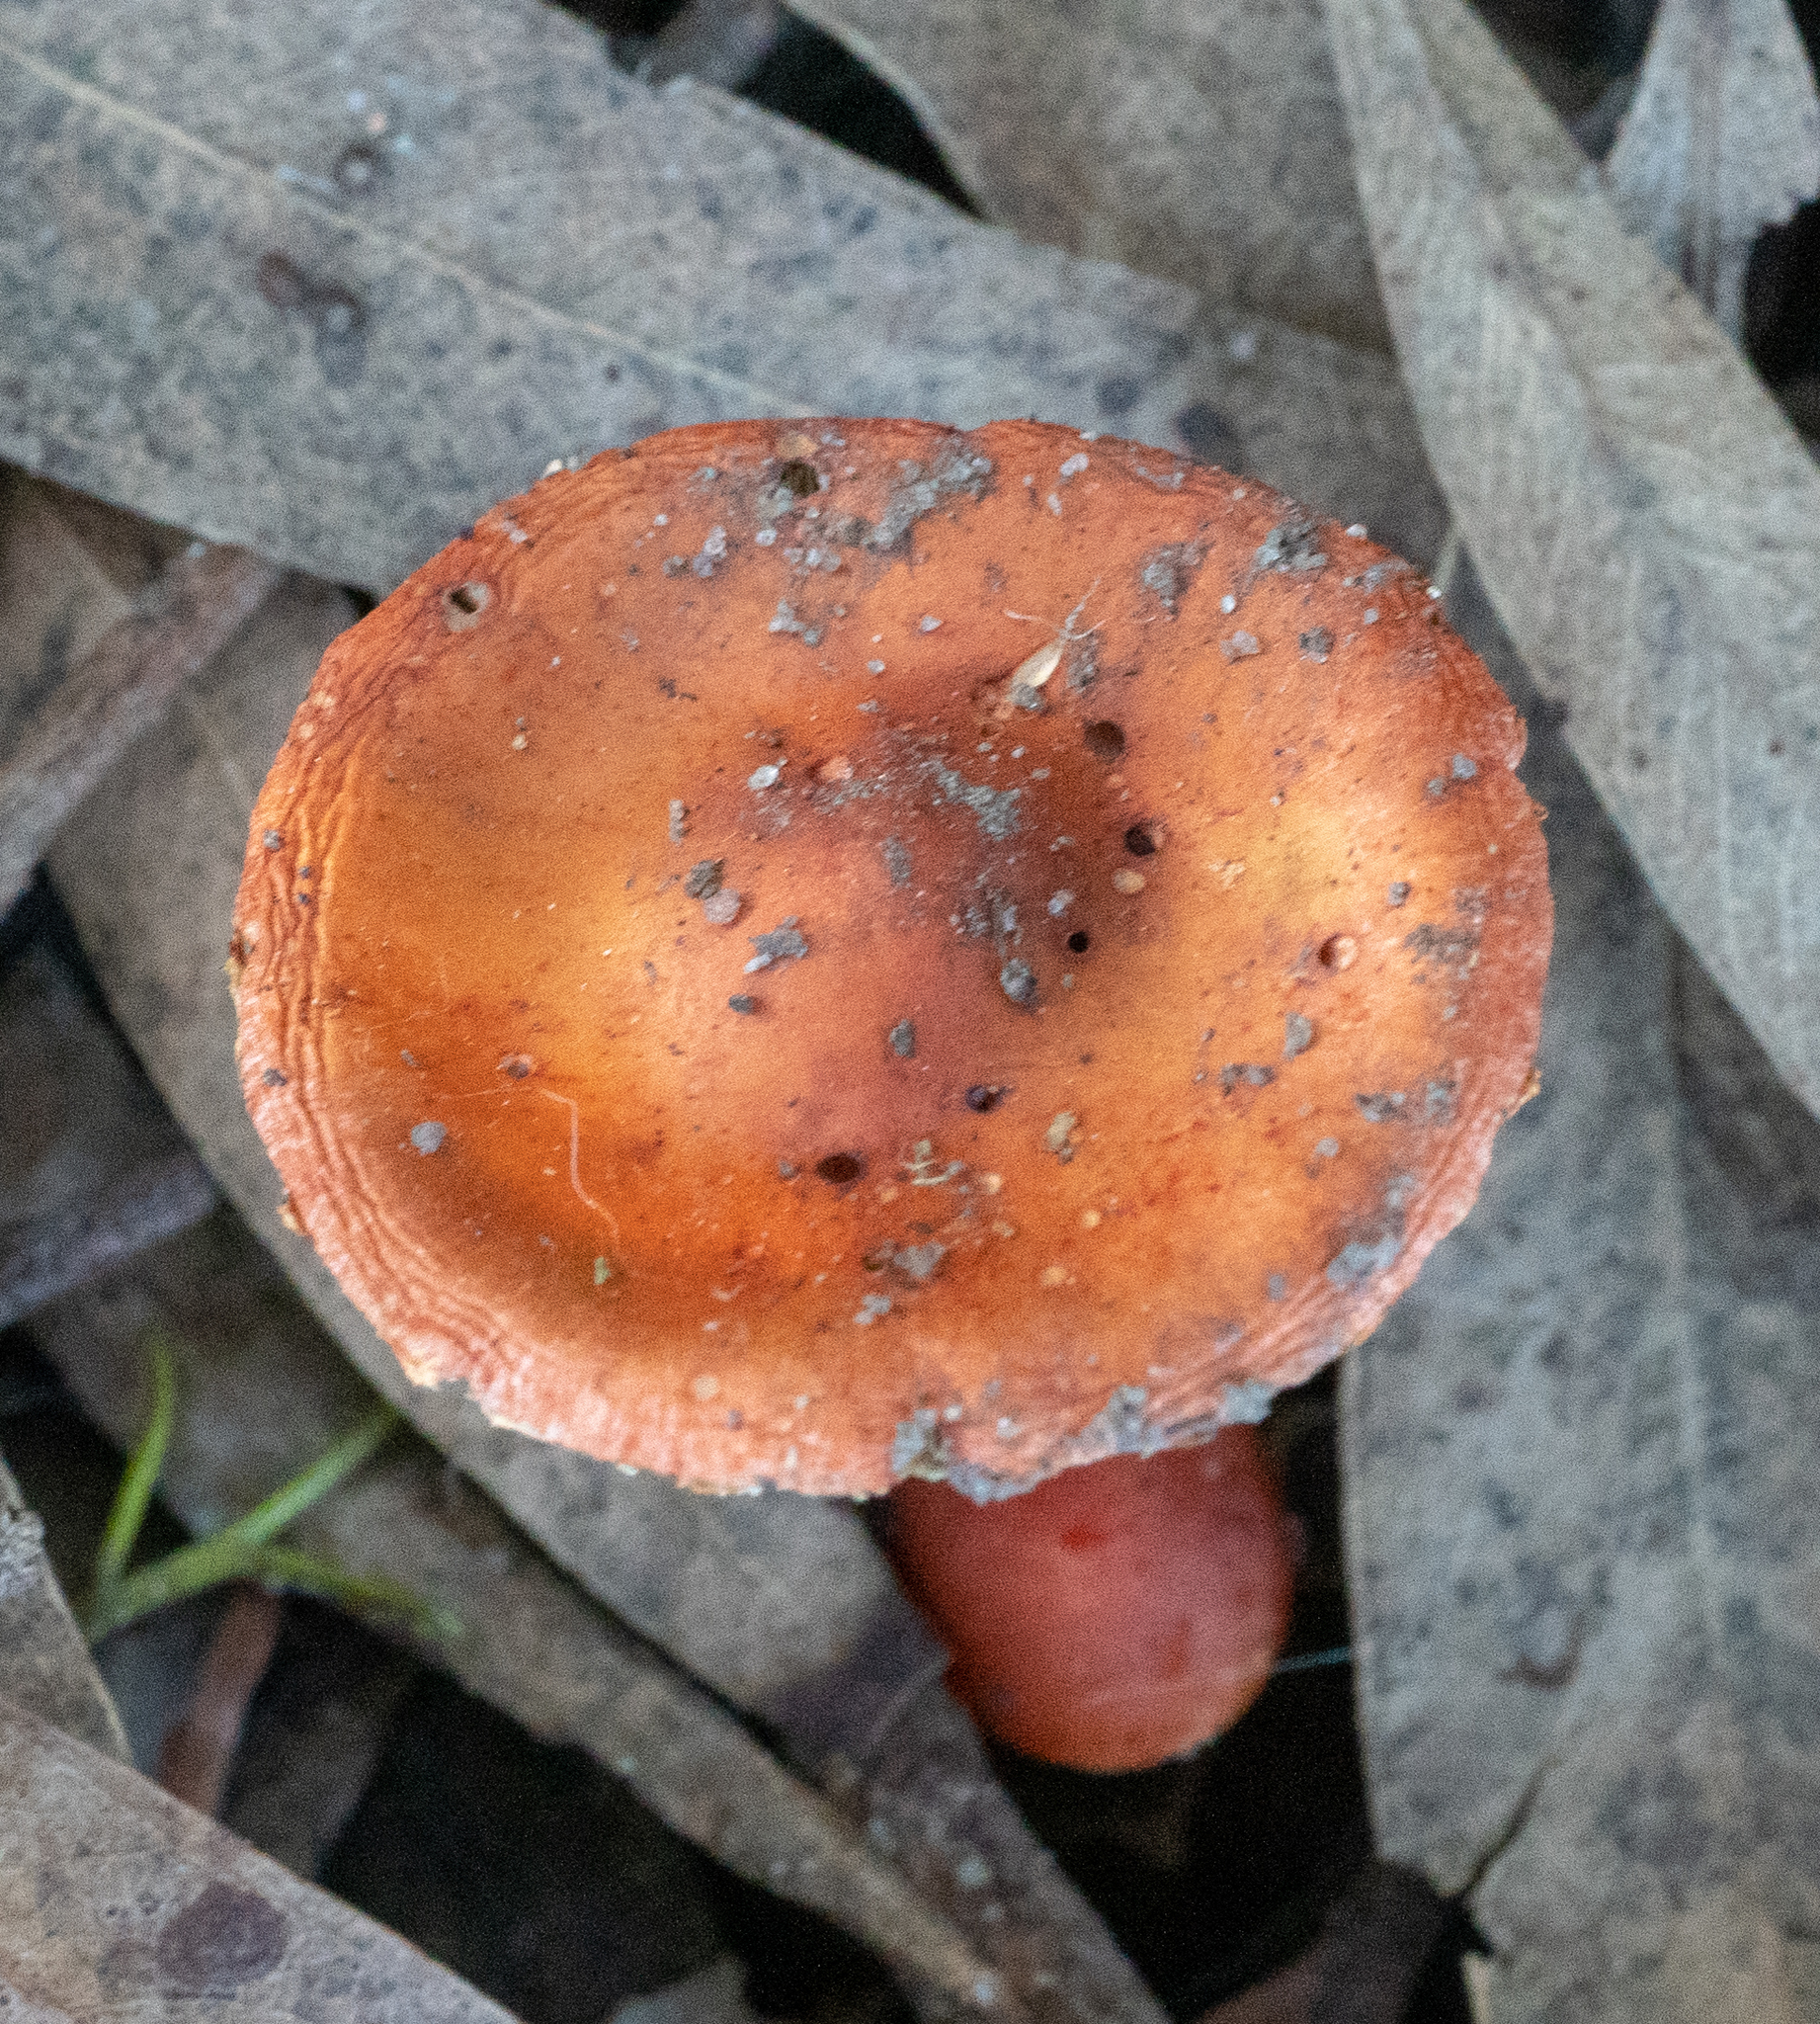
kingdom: Fungi
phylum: Basidiomycota
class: Agaricomycetes
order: Agaricales
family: Strophariaceae
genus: Leratiomyces
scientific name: Leratiomyces ceres
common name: Redlead roundhead
